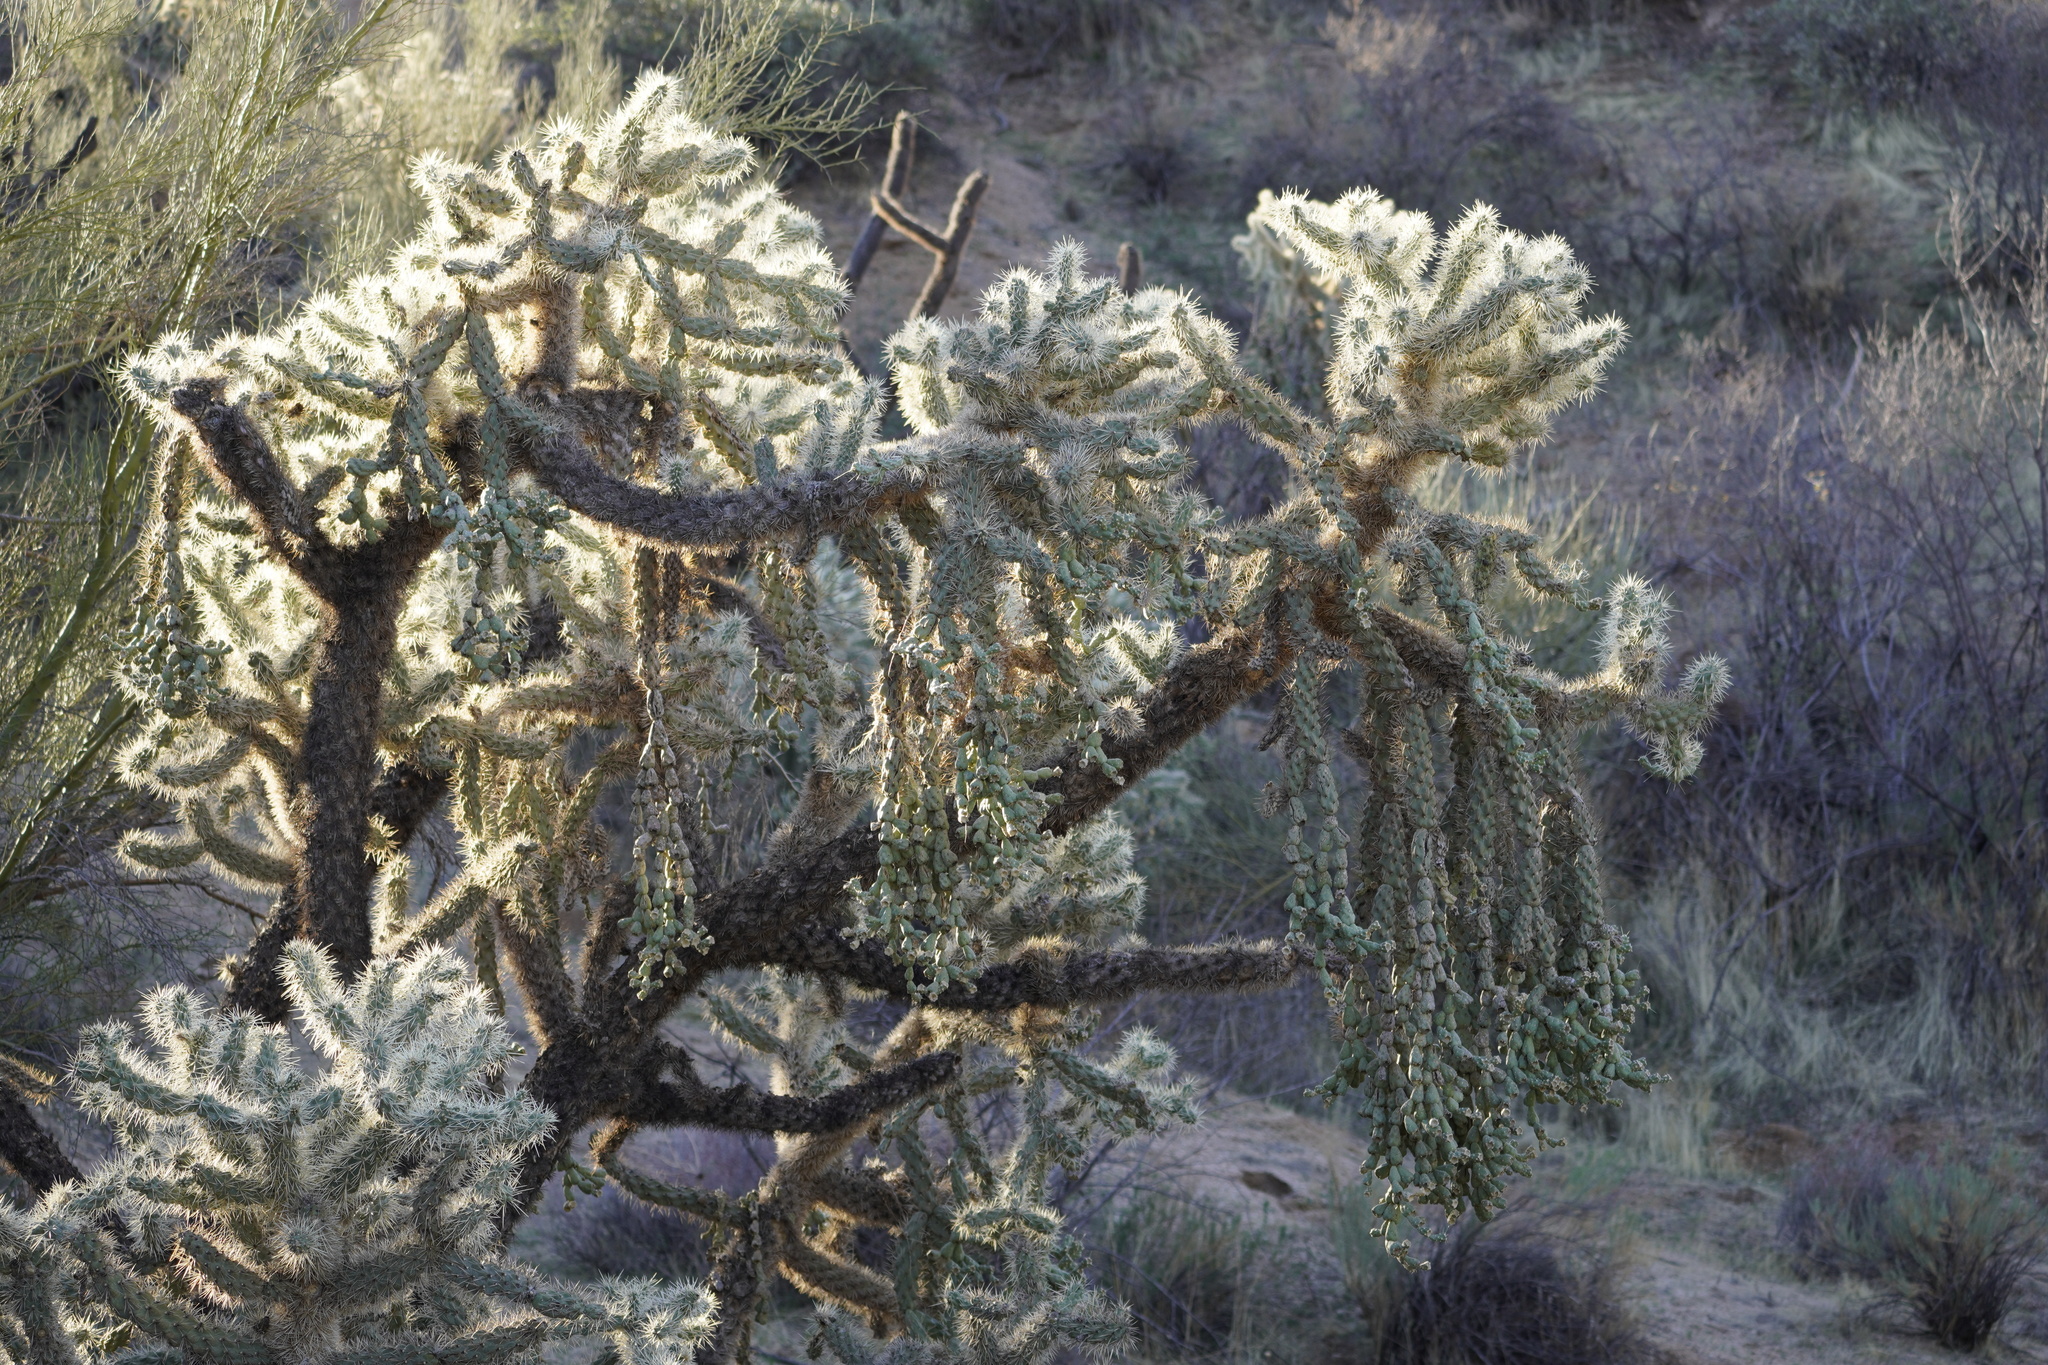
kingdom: Plantae
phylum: Tracheophyta
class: Magnoliopsida
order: Caryophyllales
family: Cactaceae
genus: Cylindropuntia
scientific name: Cylindropuntia fulgida
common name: Jumping cholla
